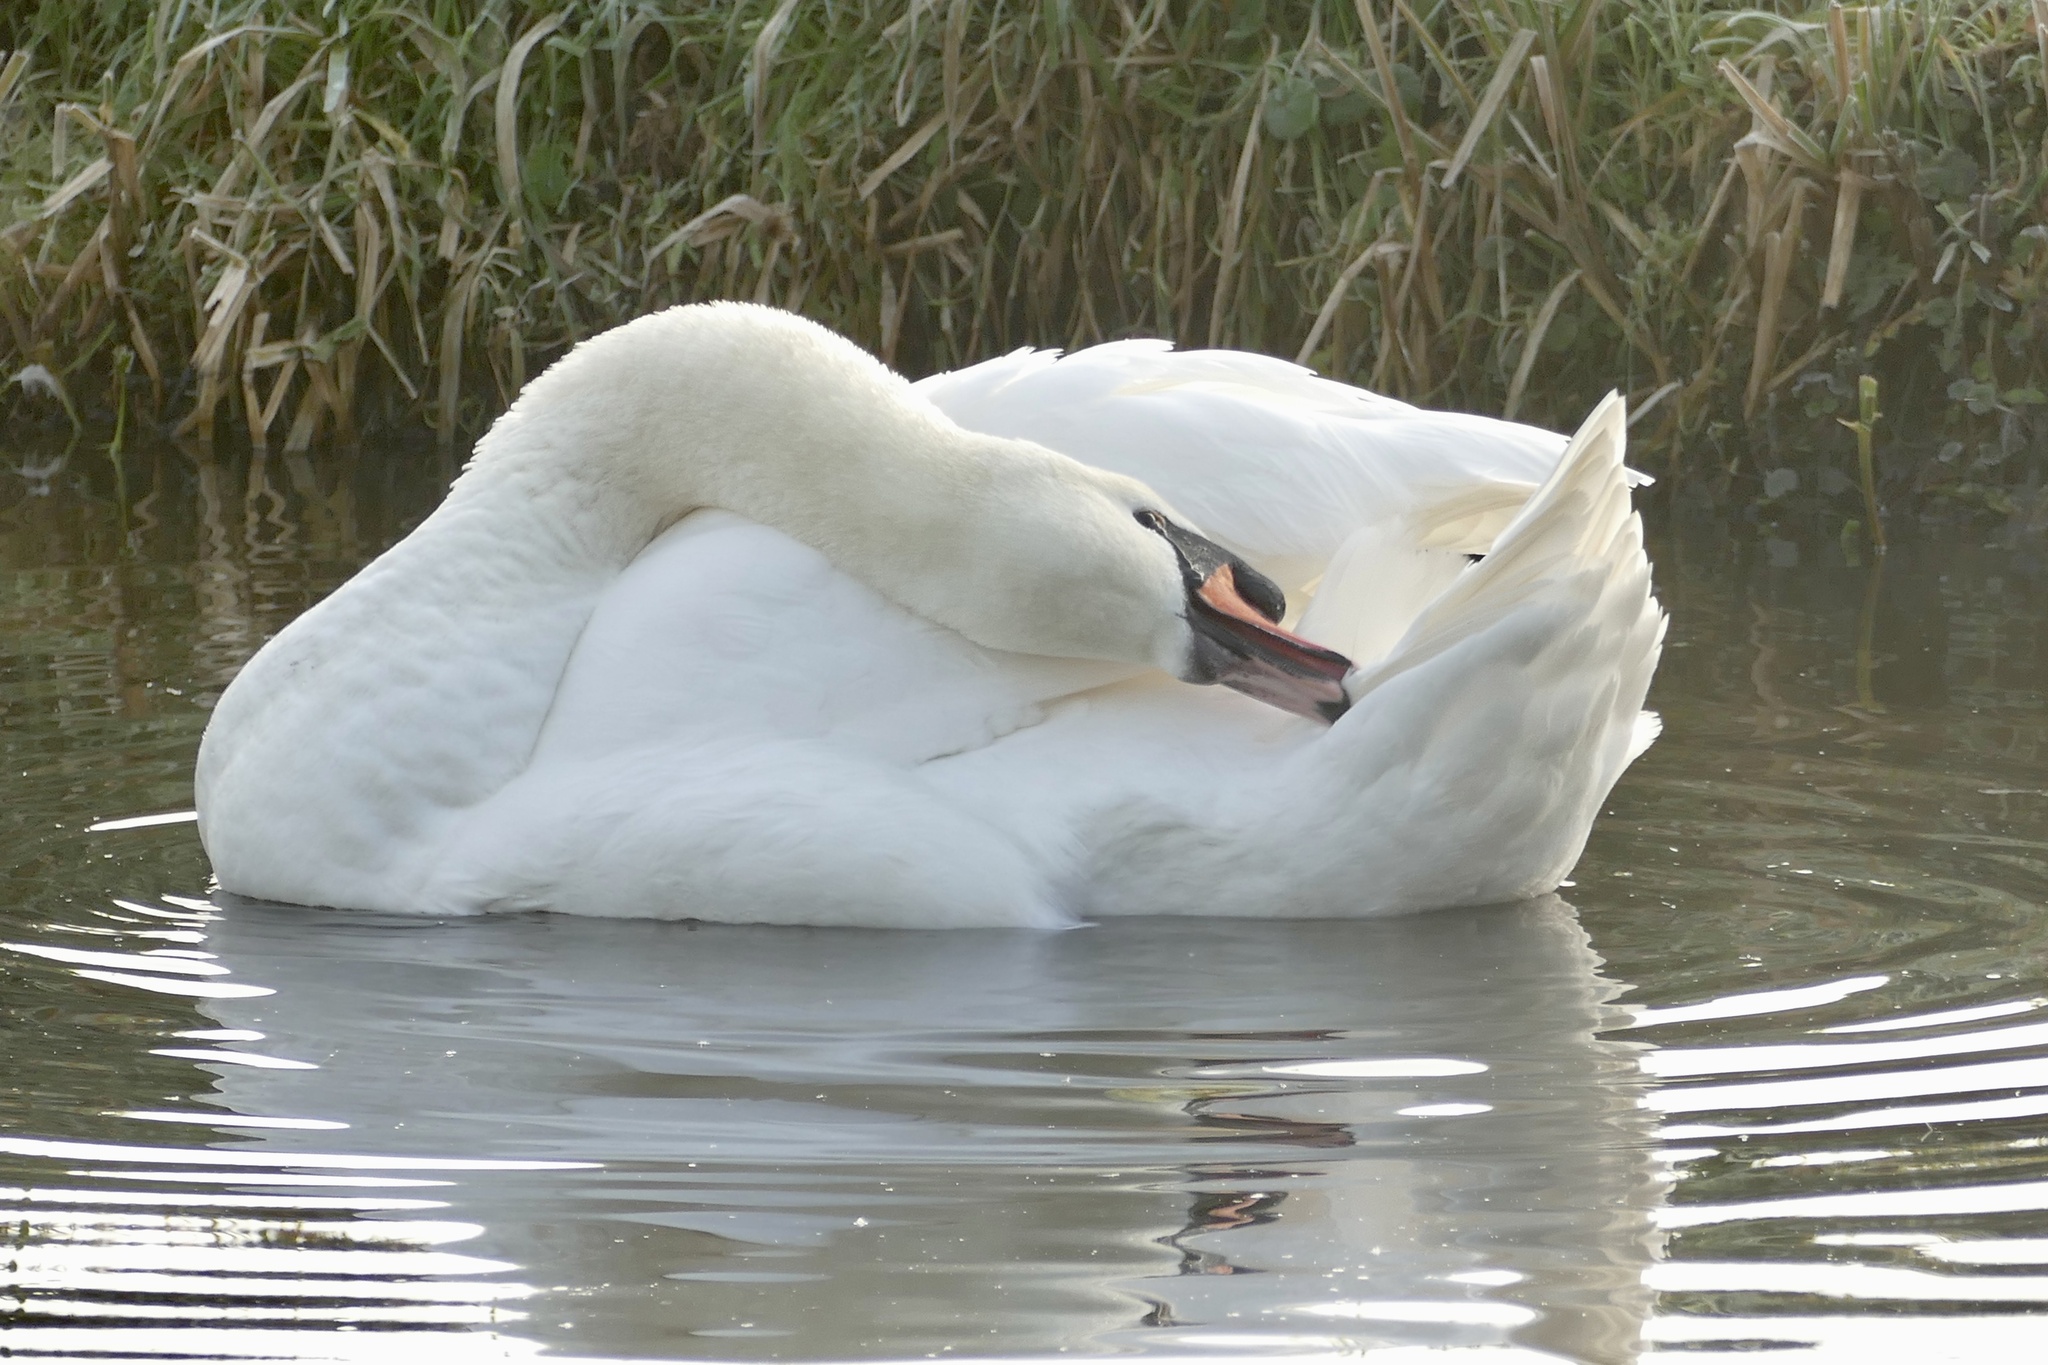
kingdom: Animalia
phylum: Chordata
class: Aves
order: Anseriformes
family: Anatidae
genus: Cygnus
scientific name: Cygnus olor
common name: Mute swan
